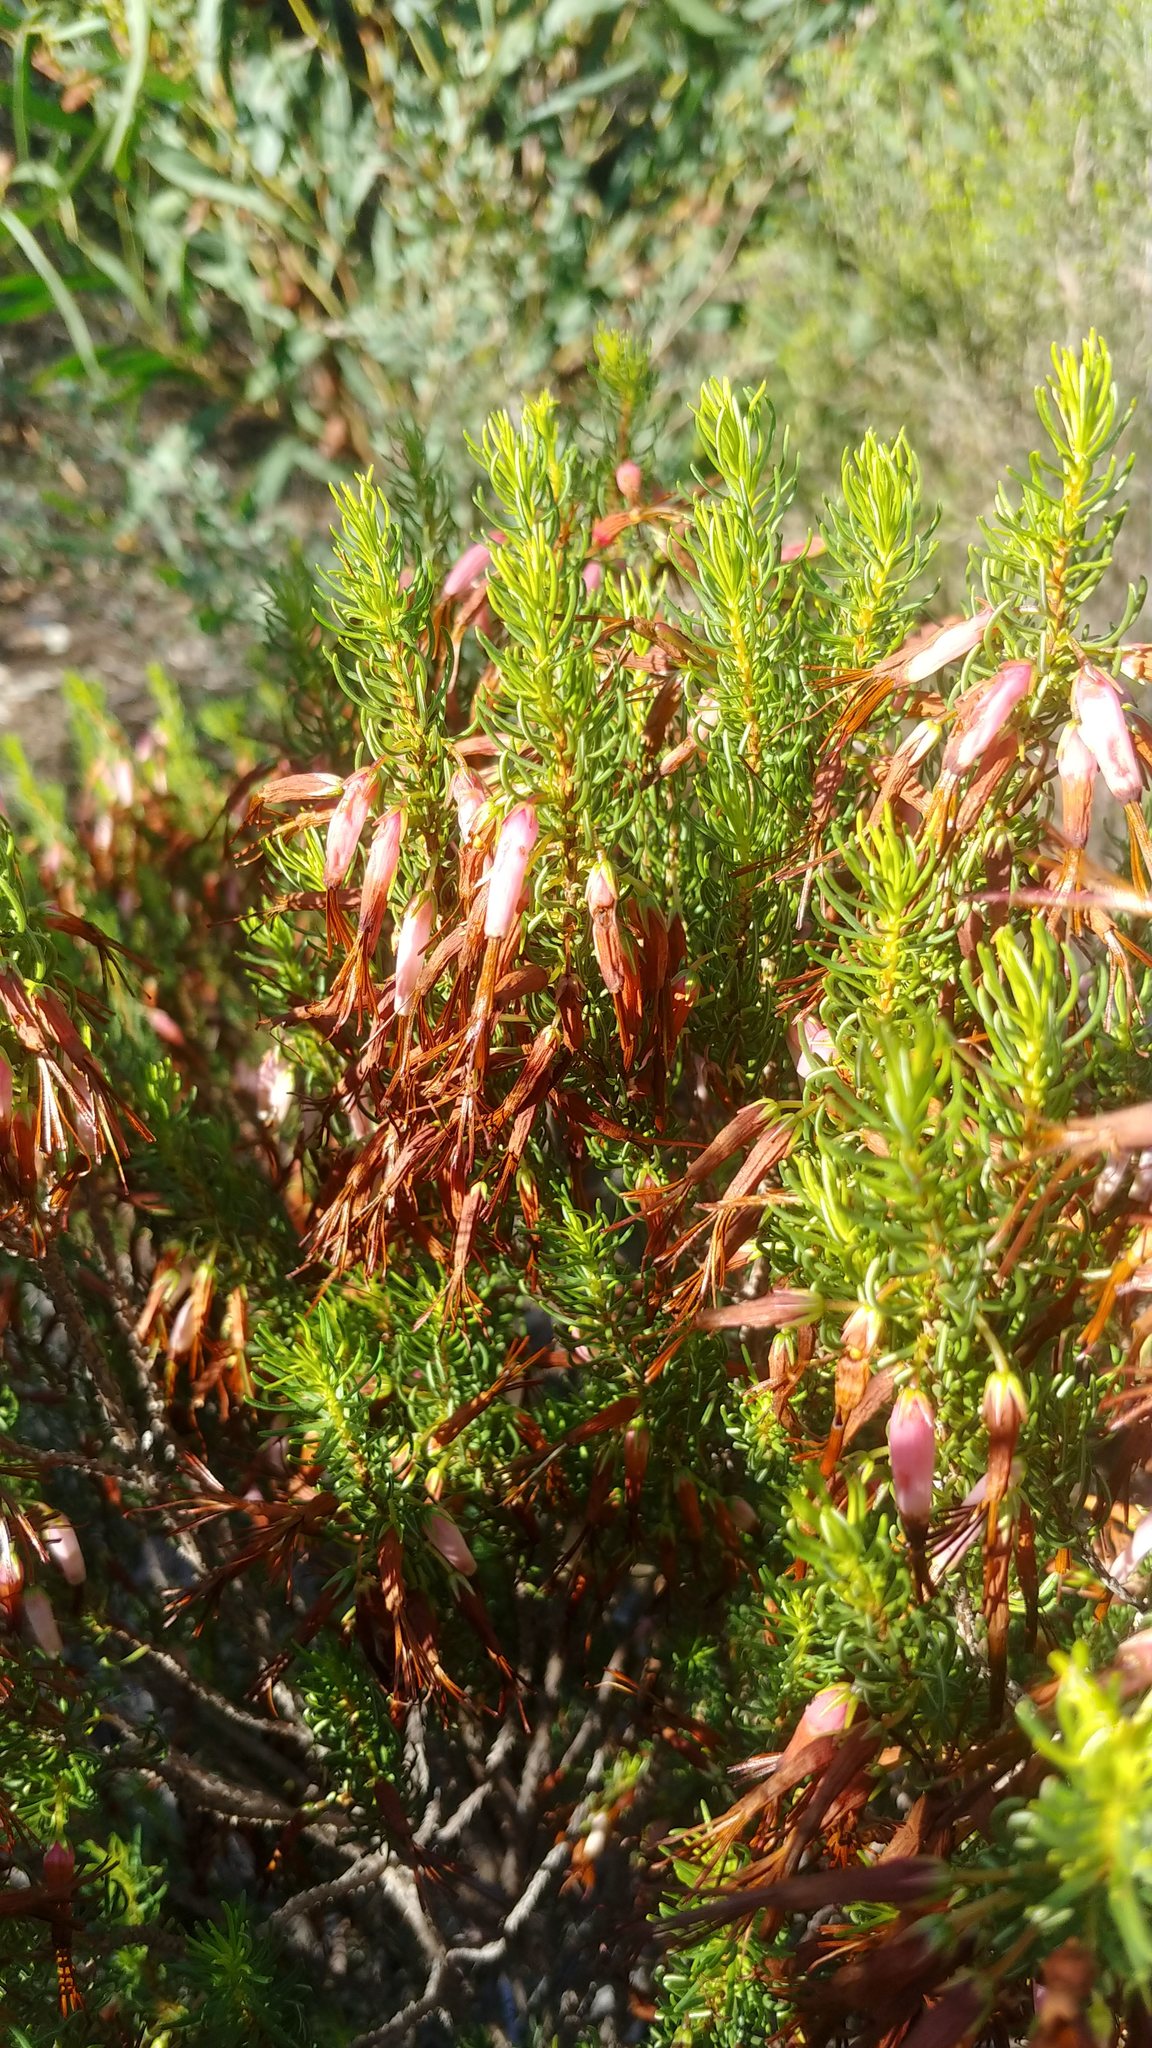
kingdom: Plantae
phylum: Tracheophyta
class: Magnoliopsida
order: Ericales
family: Ericaceae
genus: Erica
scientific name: Erica plukenetii
